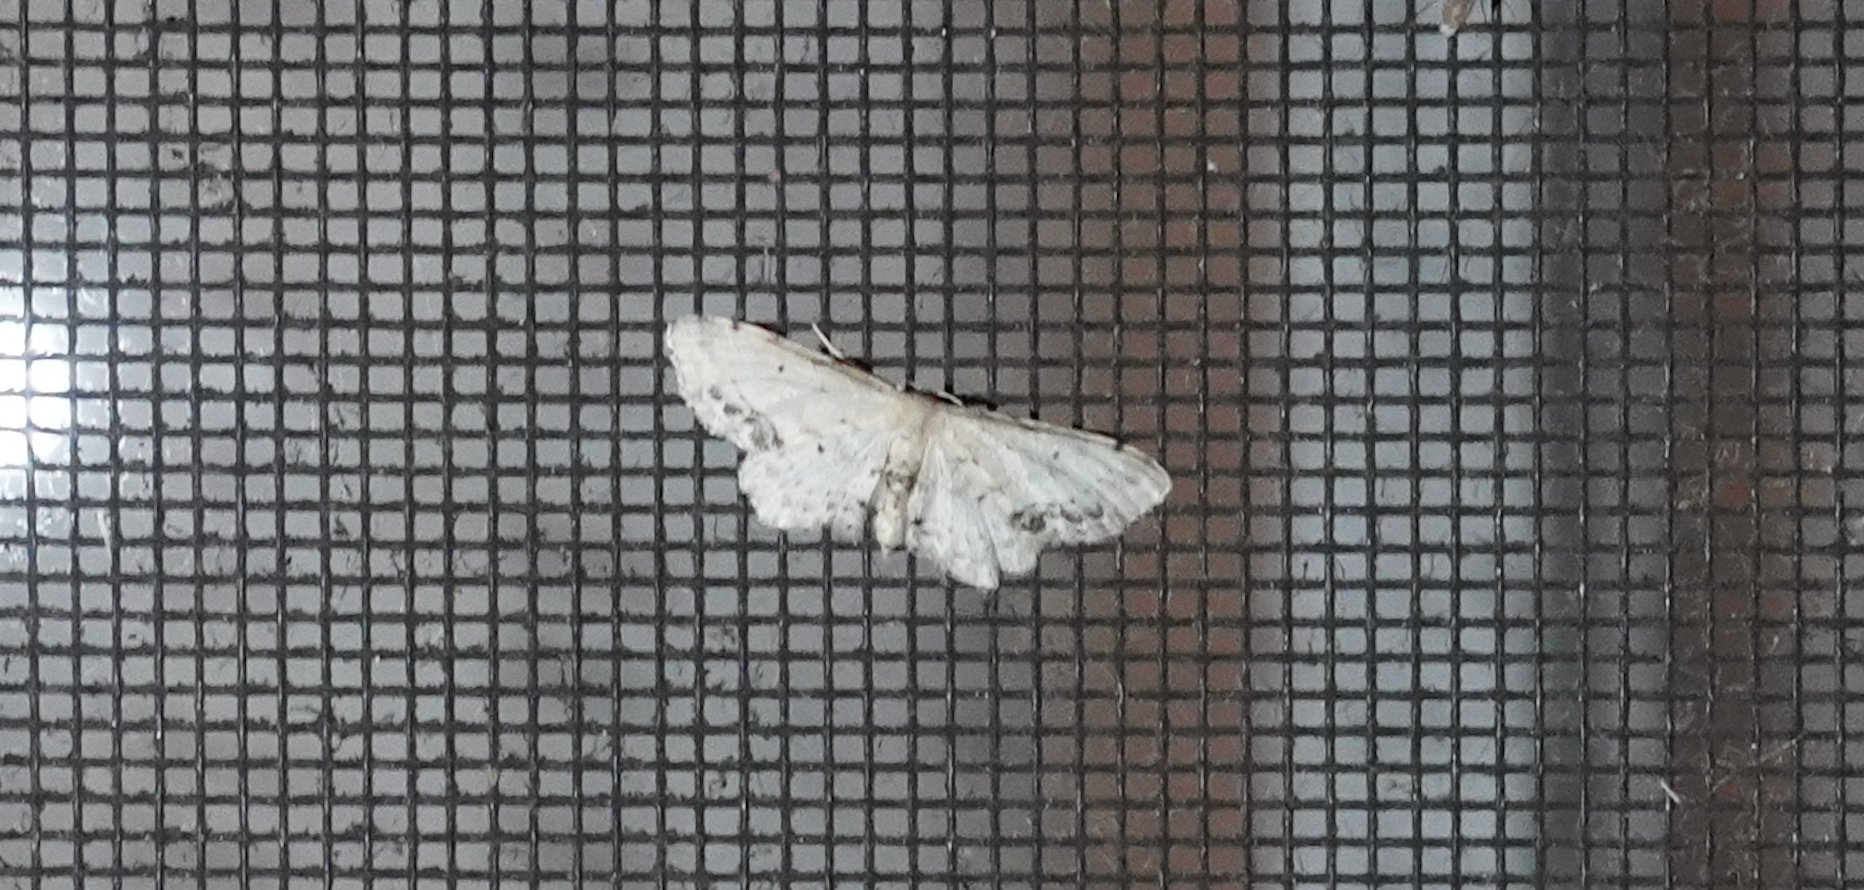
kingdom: Animalia
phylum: Arthropoda
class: Insecta
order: Lepidoptera
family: Geometridae
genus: Idaea
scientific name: Idaea dimidiata
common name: Single-dotted wave
